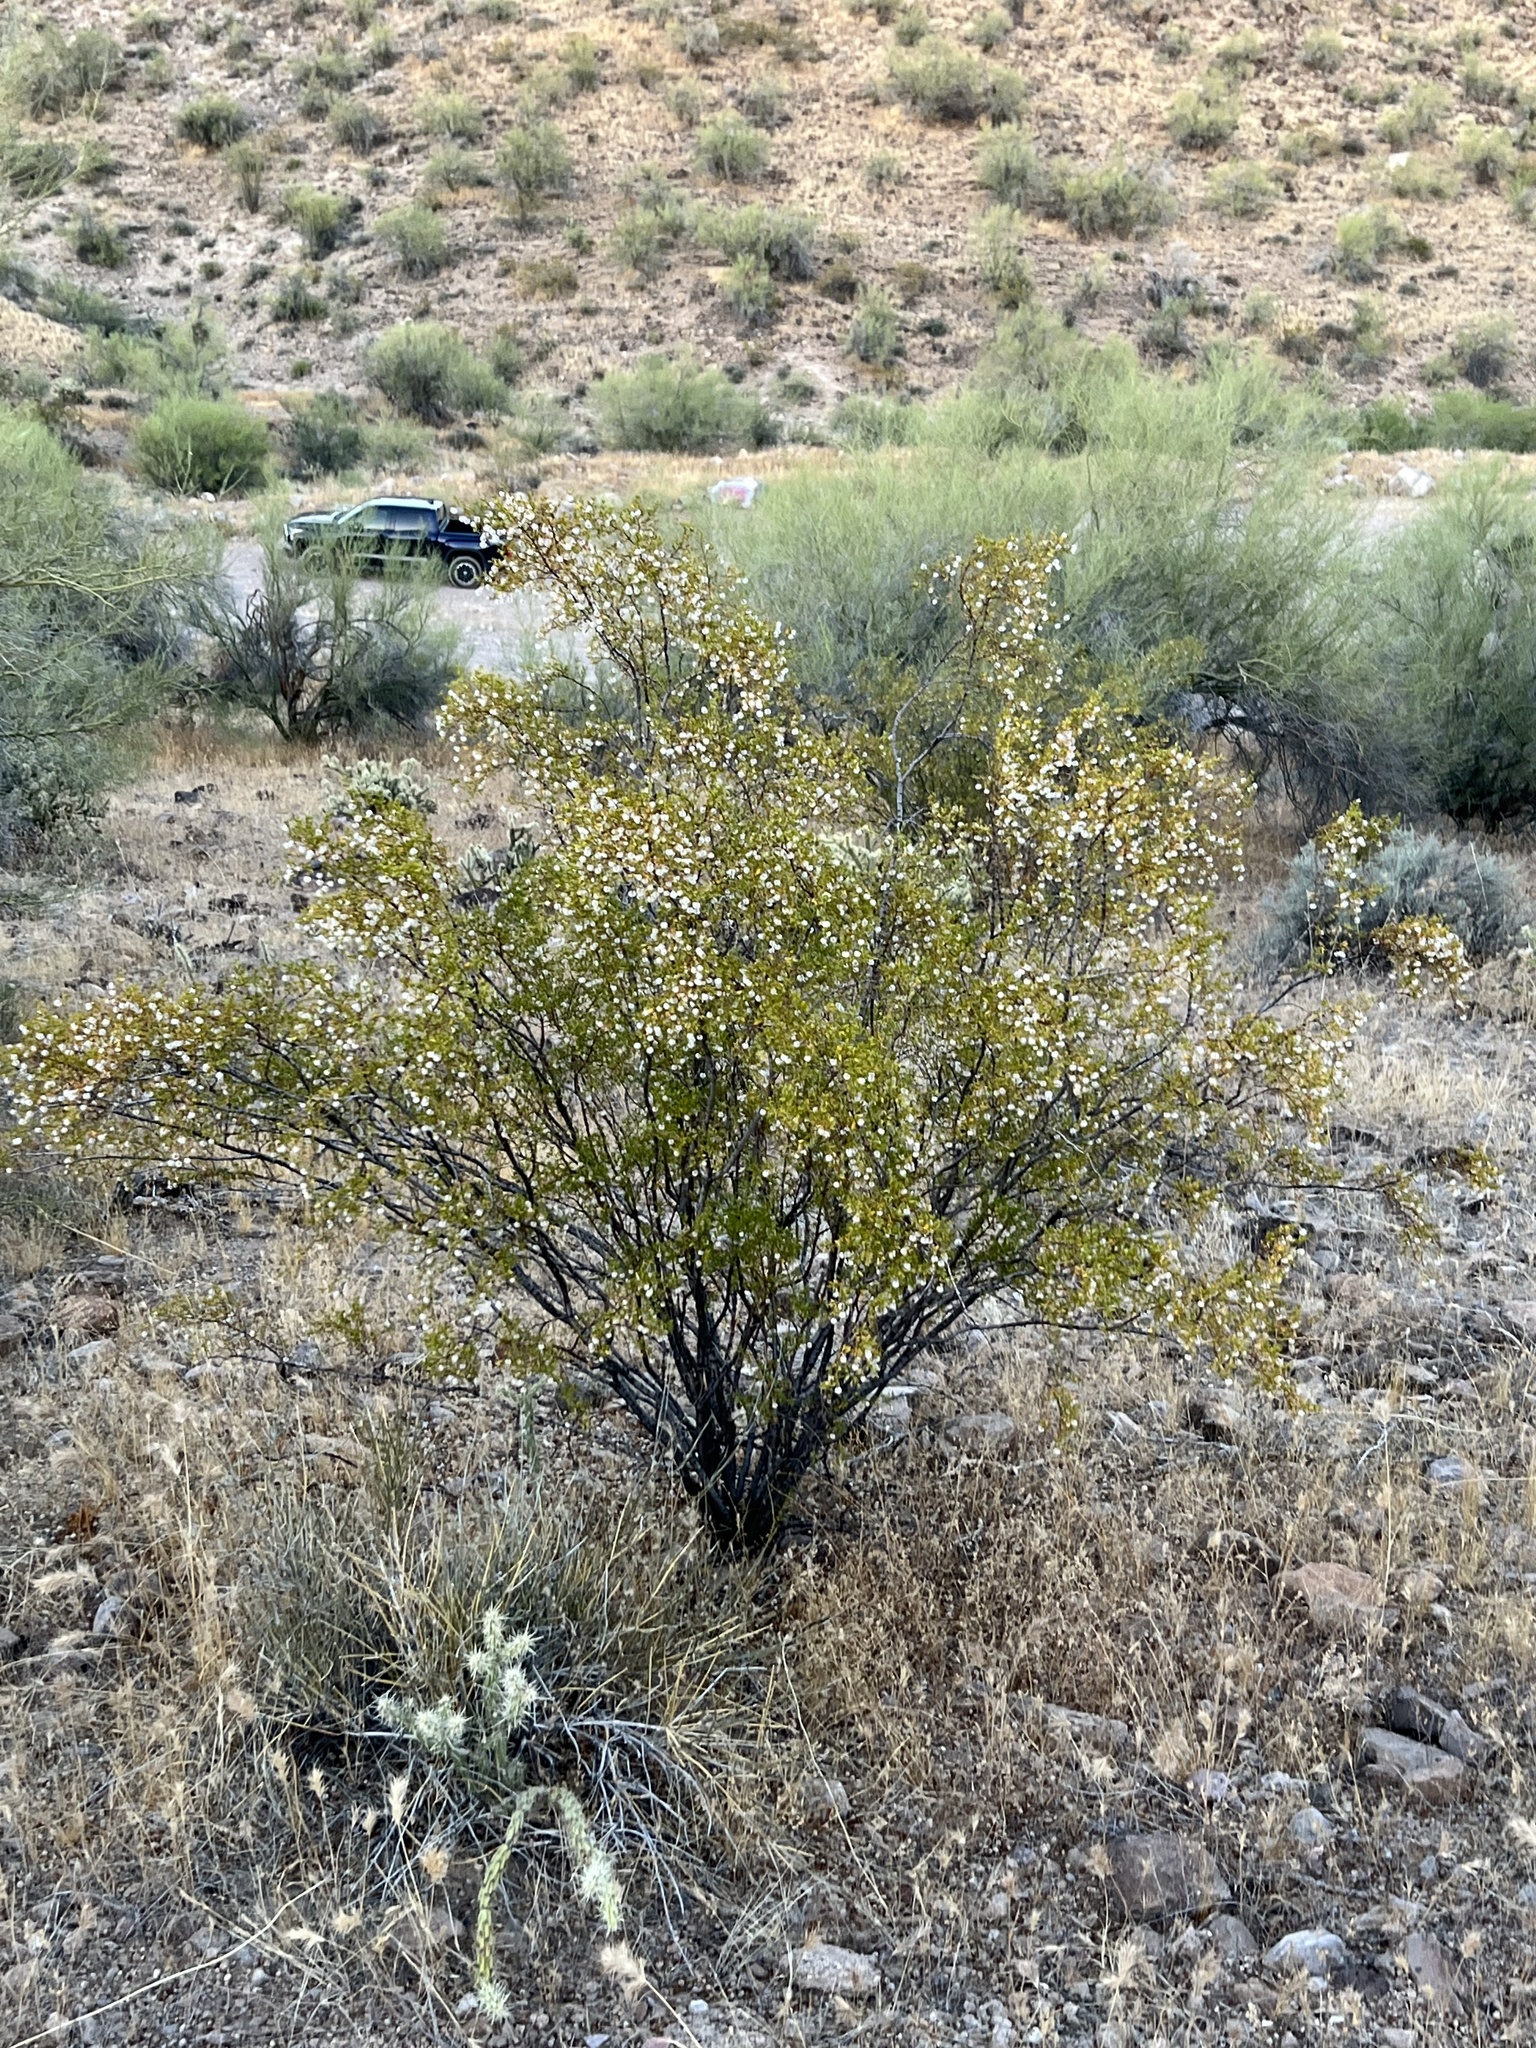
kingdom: Plantae
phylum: Tracheophyta
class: Magnoliopsida
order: Zygophyllales
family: Zygophyllaceae
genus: Larrea
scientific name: Larrea tridentata
